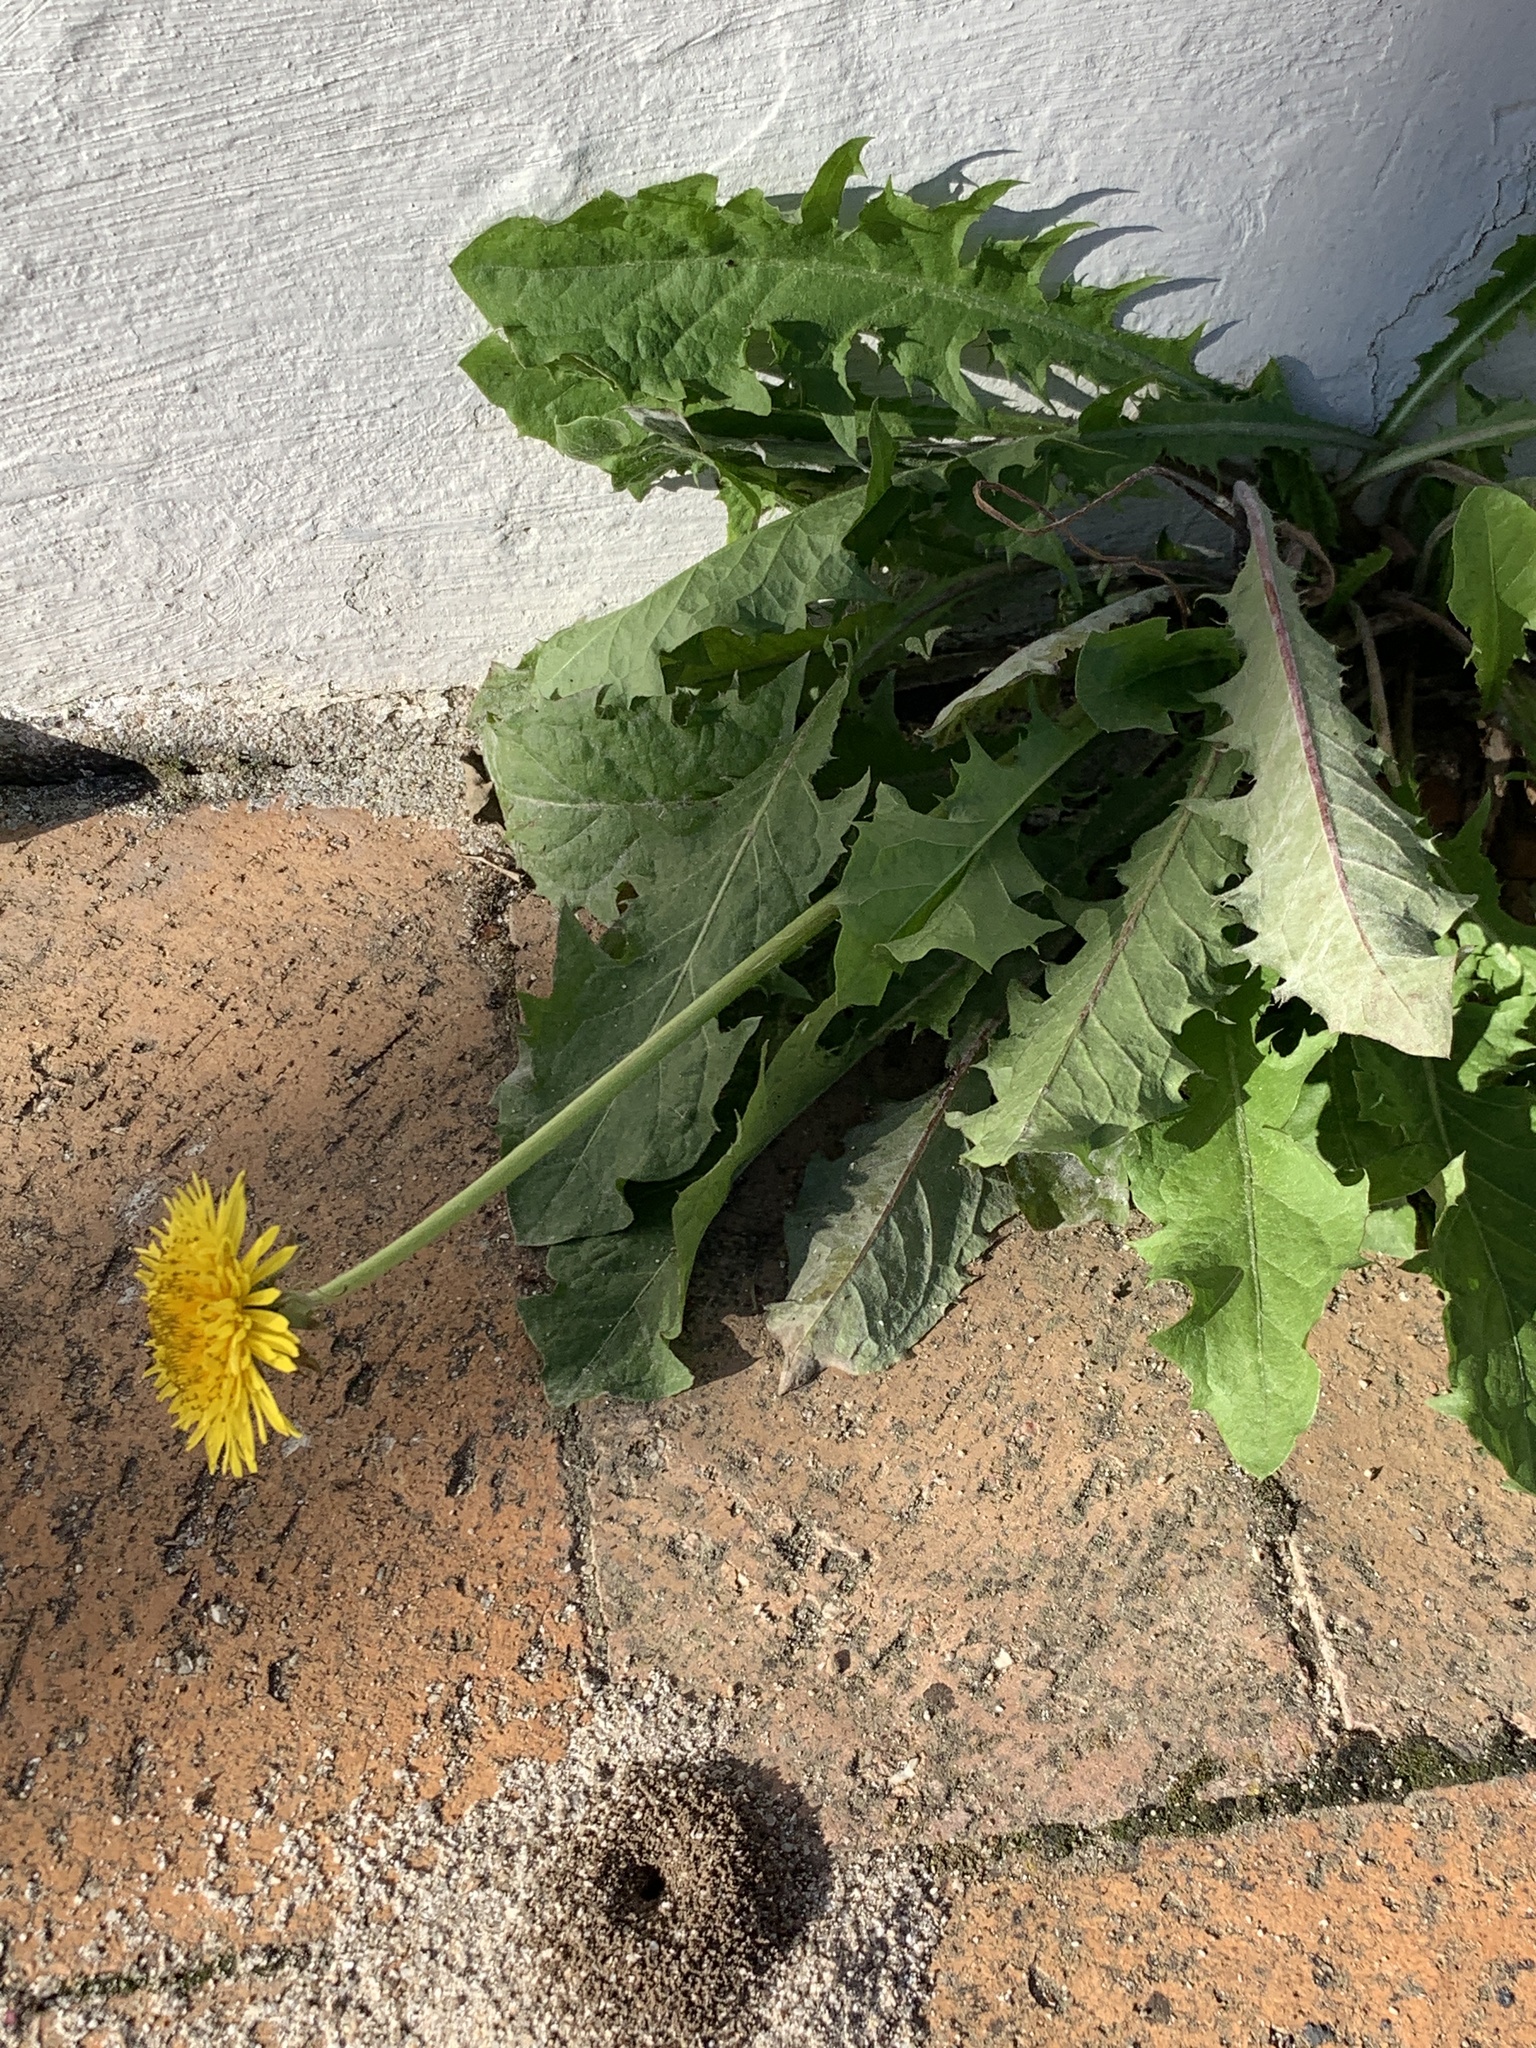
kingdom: Plantae
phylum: Tracheophyta
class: Magnoliopsida
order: Asterales
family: Asteraceae
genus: Taraxacum
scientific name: Taraxacum officinale
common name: Common dandelion
